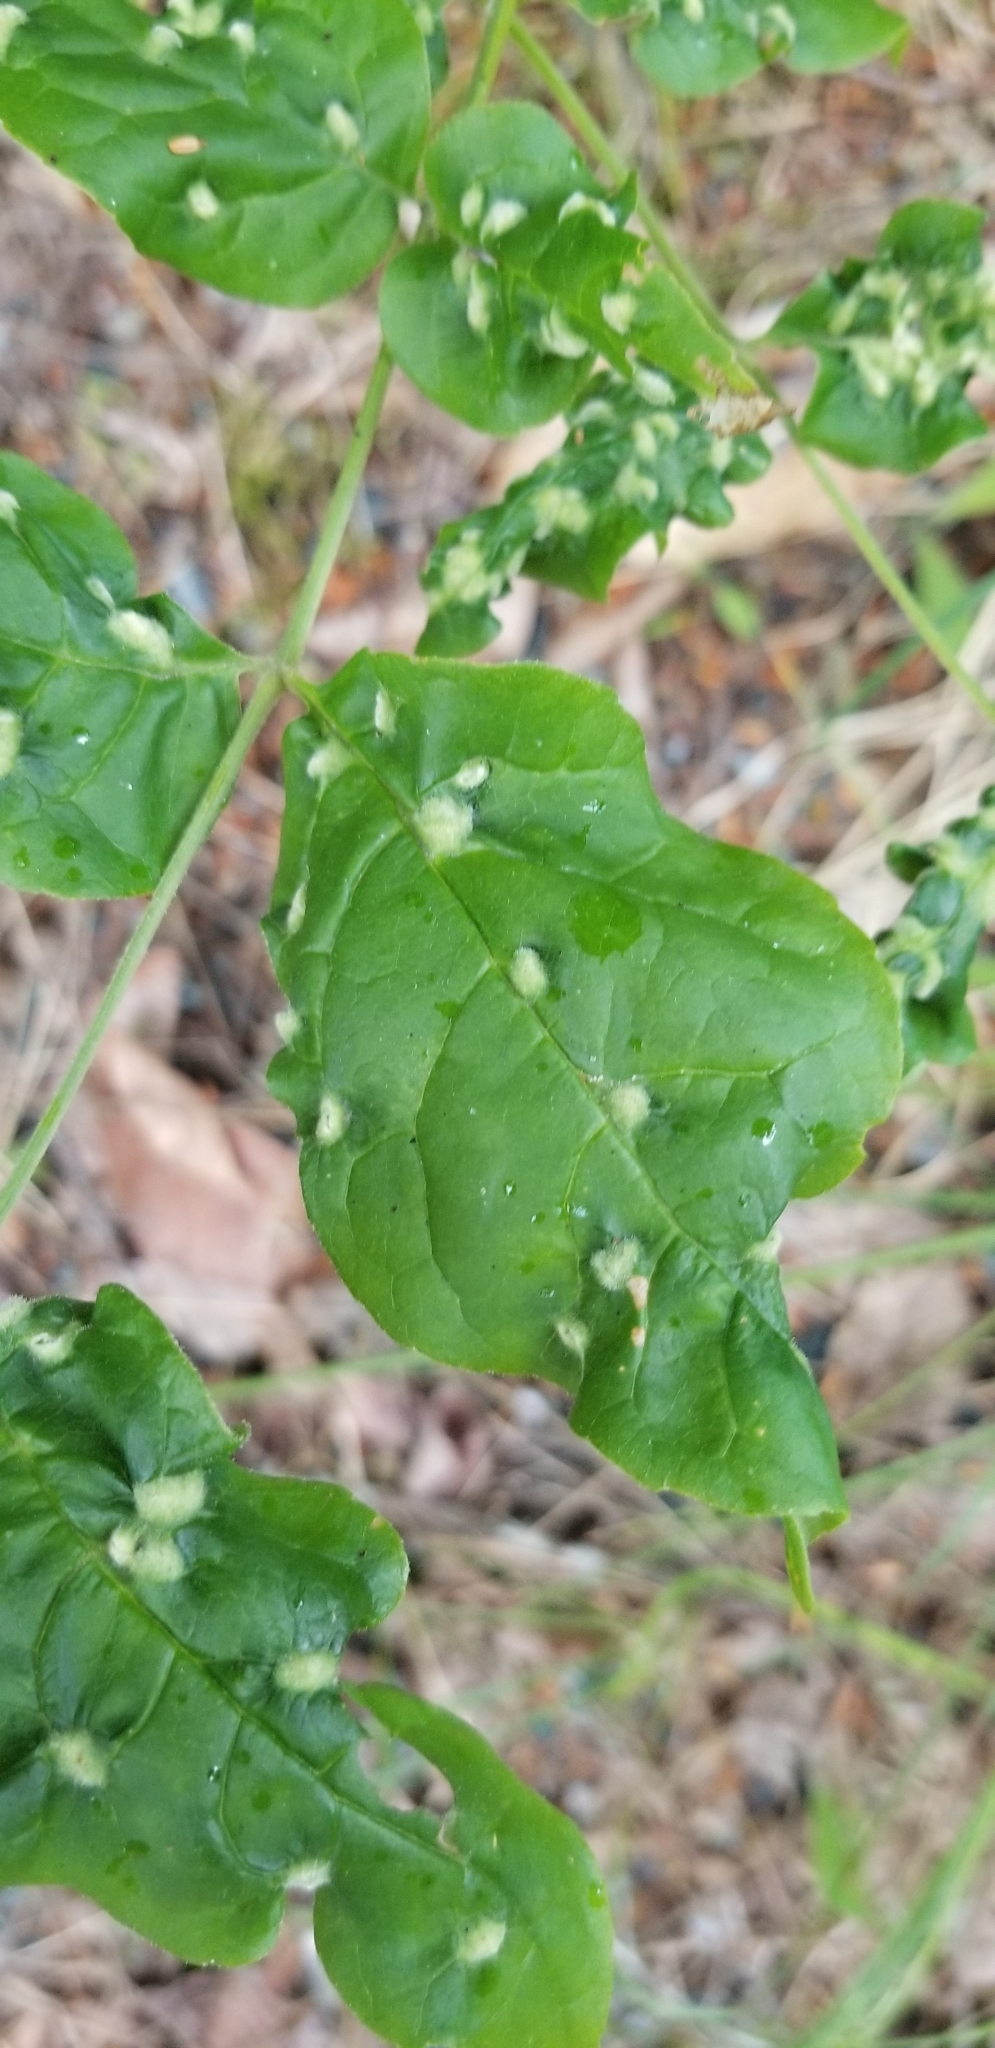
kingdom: Animalia
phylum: Arthropoda
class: Arachnida
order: Trombidiformes
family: Eriophyidae
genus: Aceria
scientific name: Aceria fraxinicola
